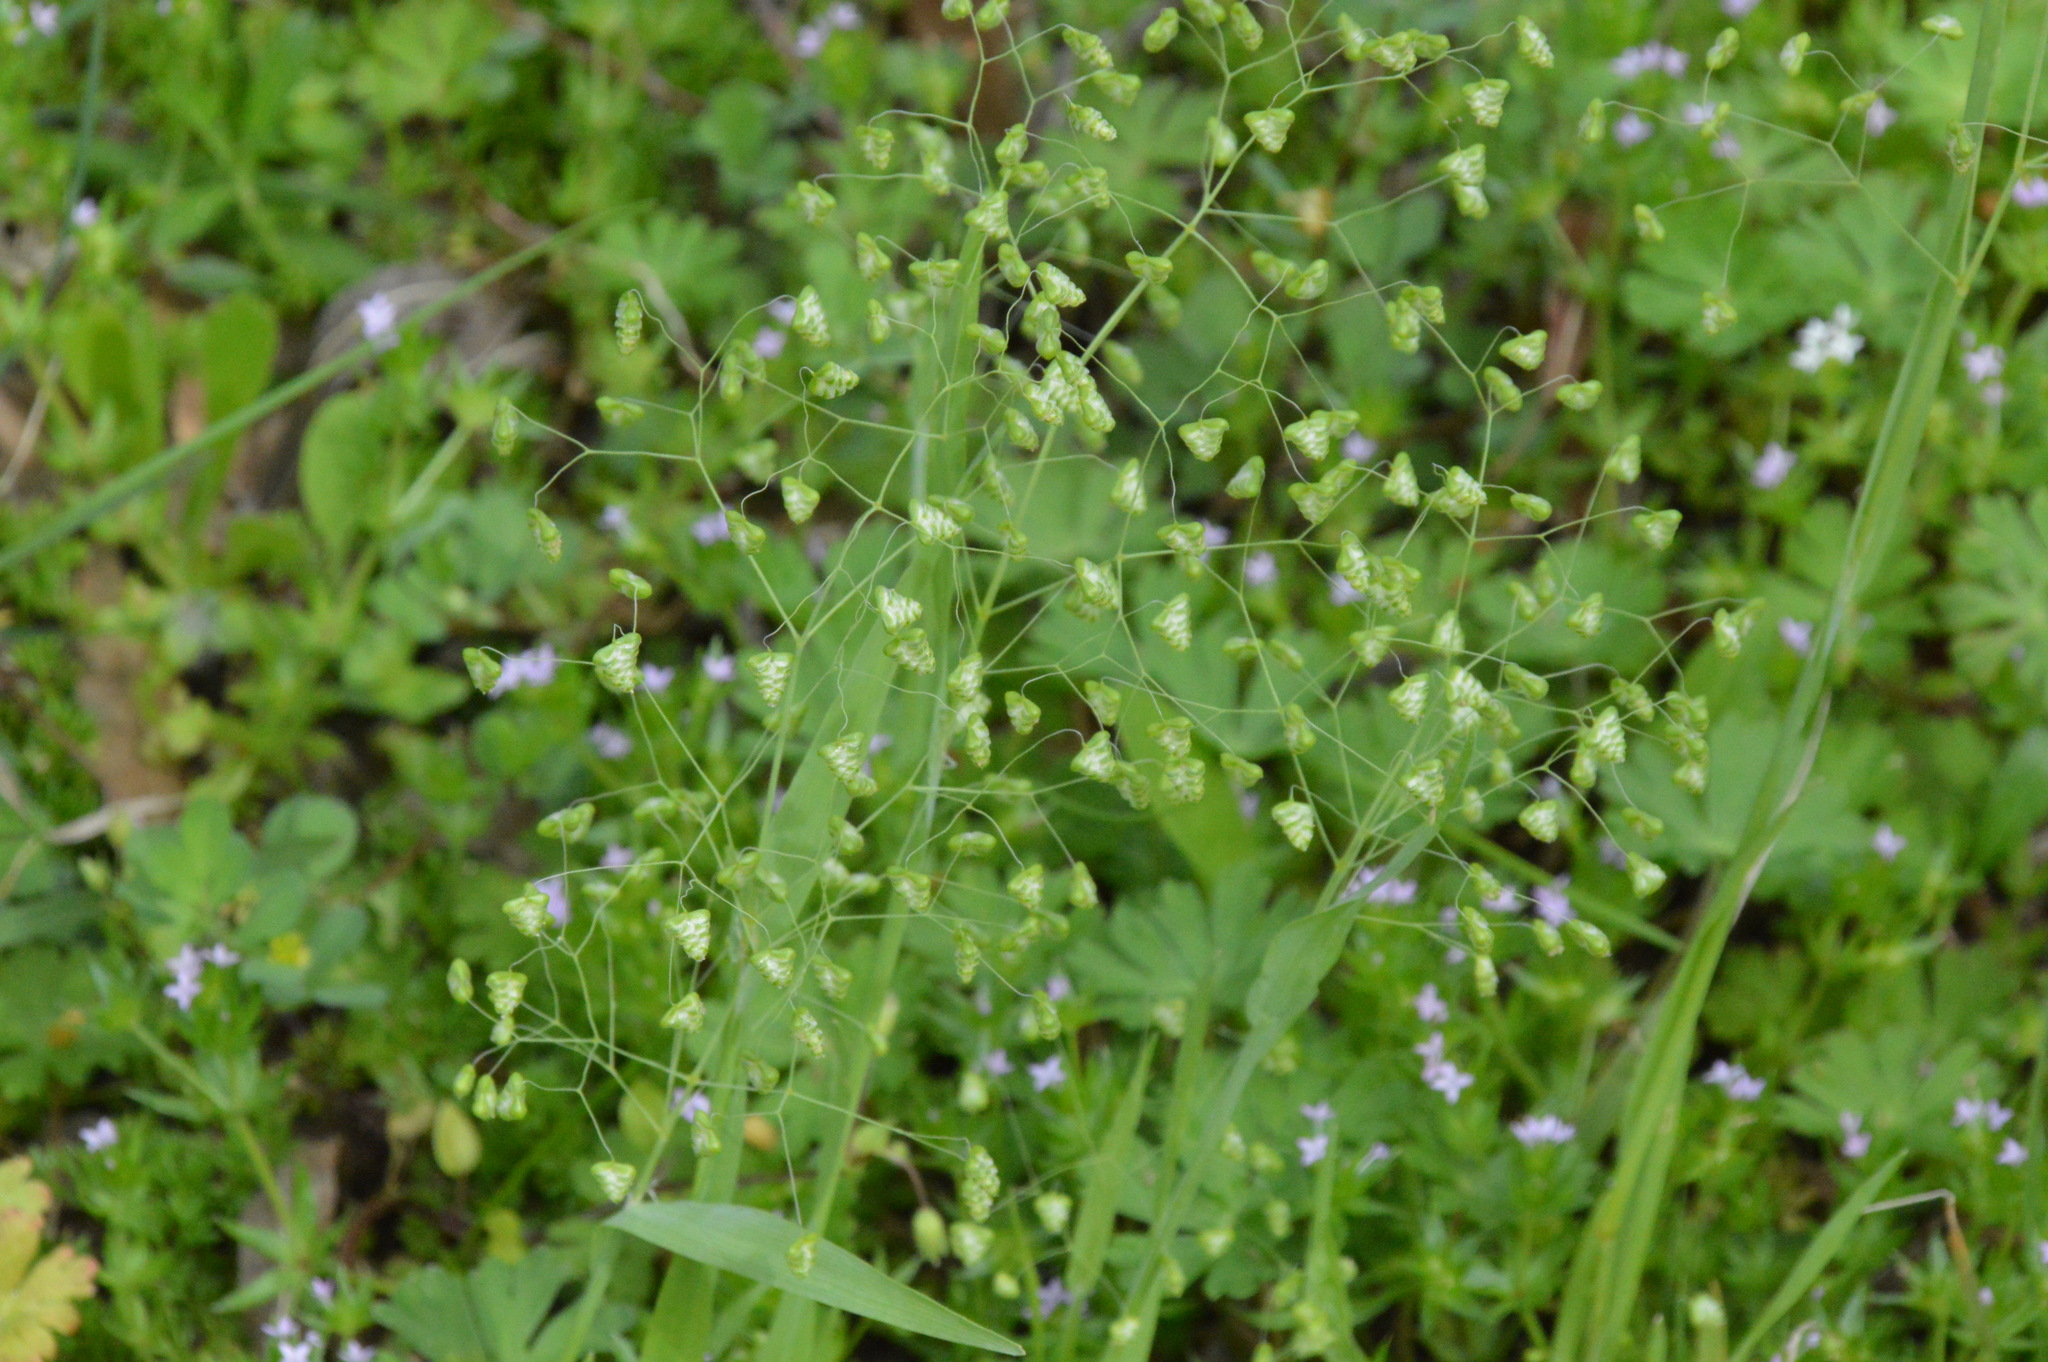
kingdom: Plantae
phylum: Tracheophyta
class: Liliopsida
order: Poales
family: Poaceae
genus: Briza
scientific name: Briza minor
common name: Lesser quaking-grass
